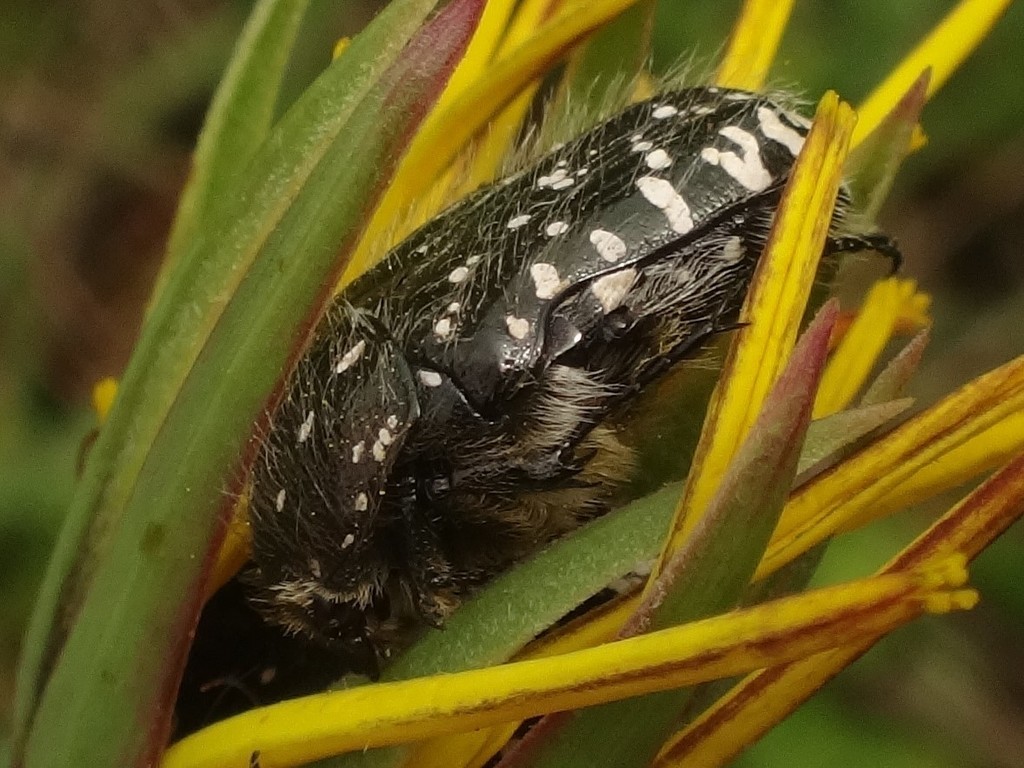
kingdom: Animalia
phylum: Arthropoda
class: Insecta
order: Coleoptera
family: Scarabaeidae
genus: Oxythyrea
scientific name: Oxythyrea funesta
